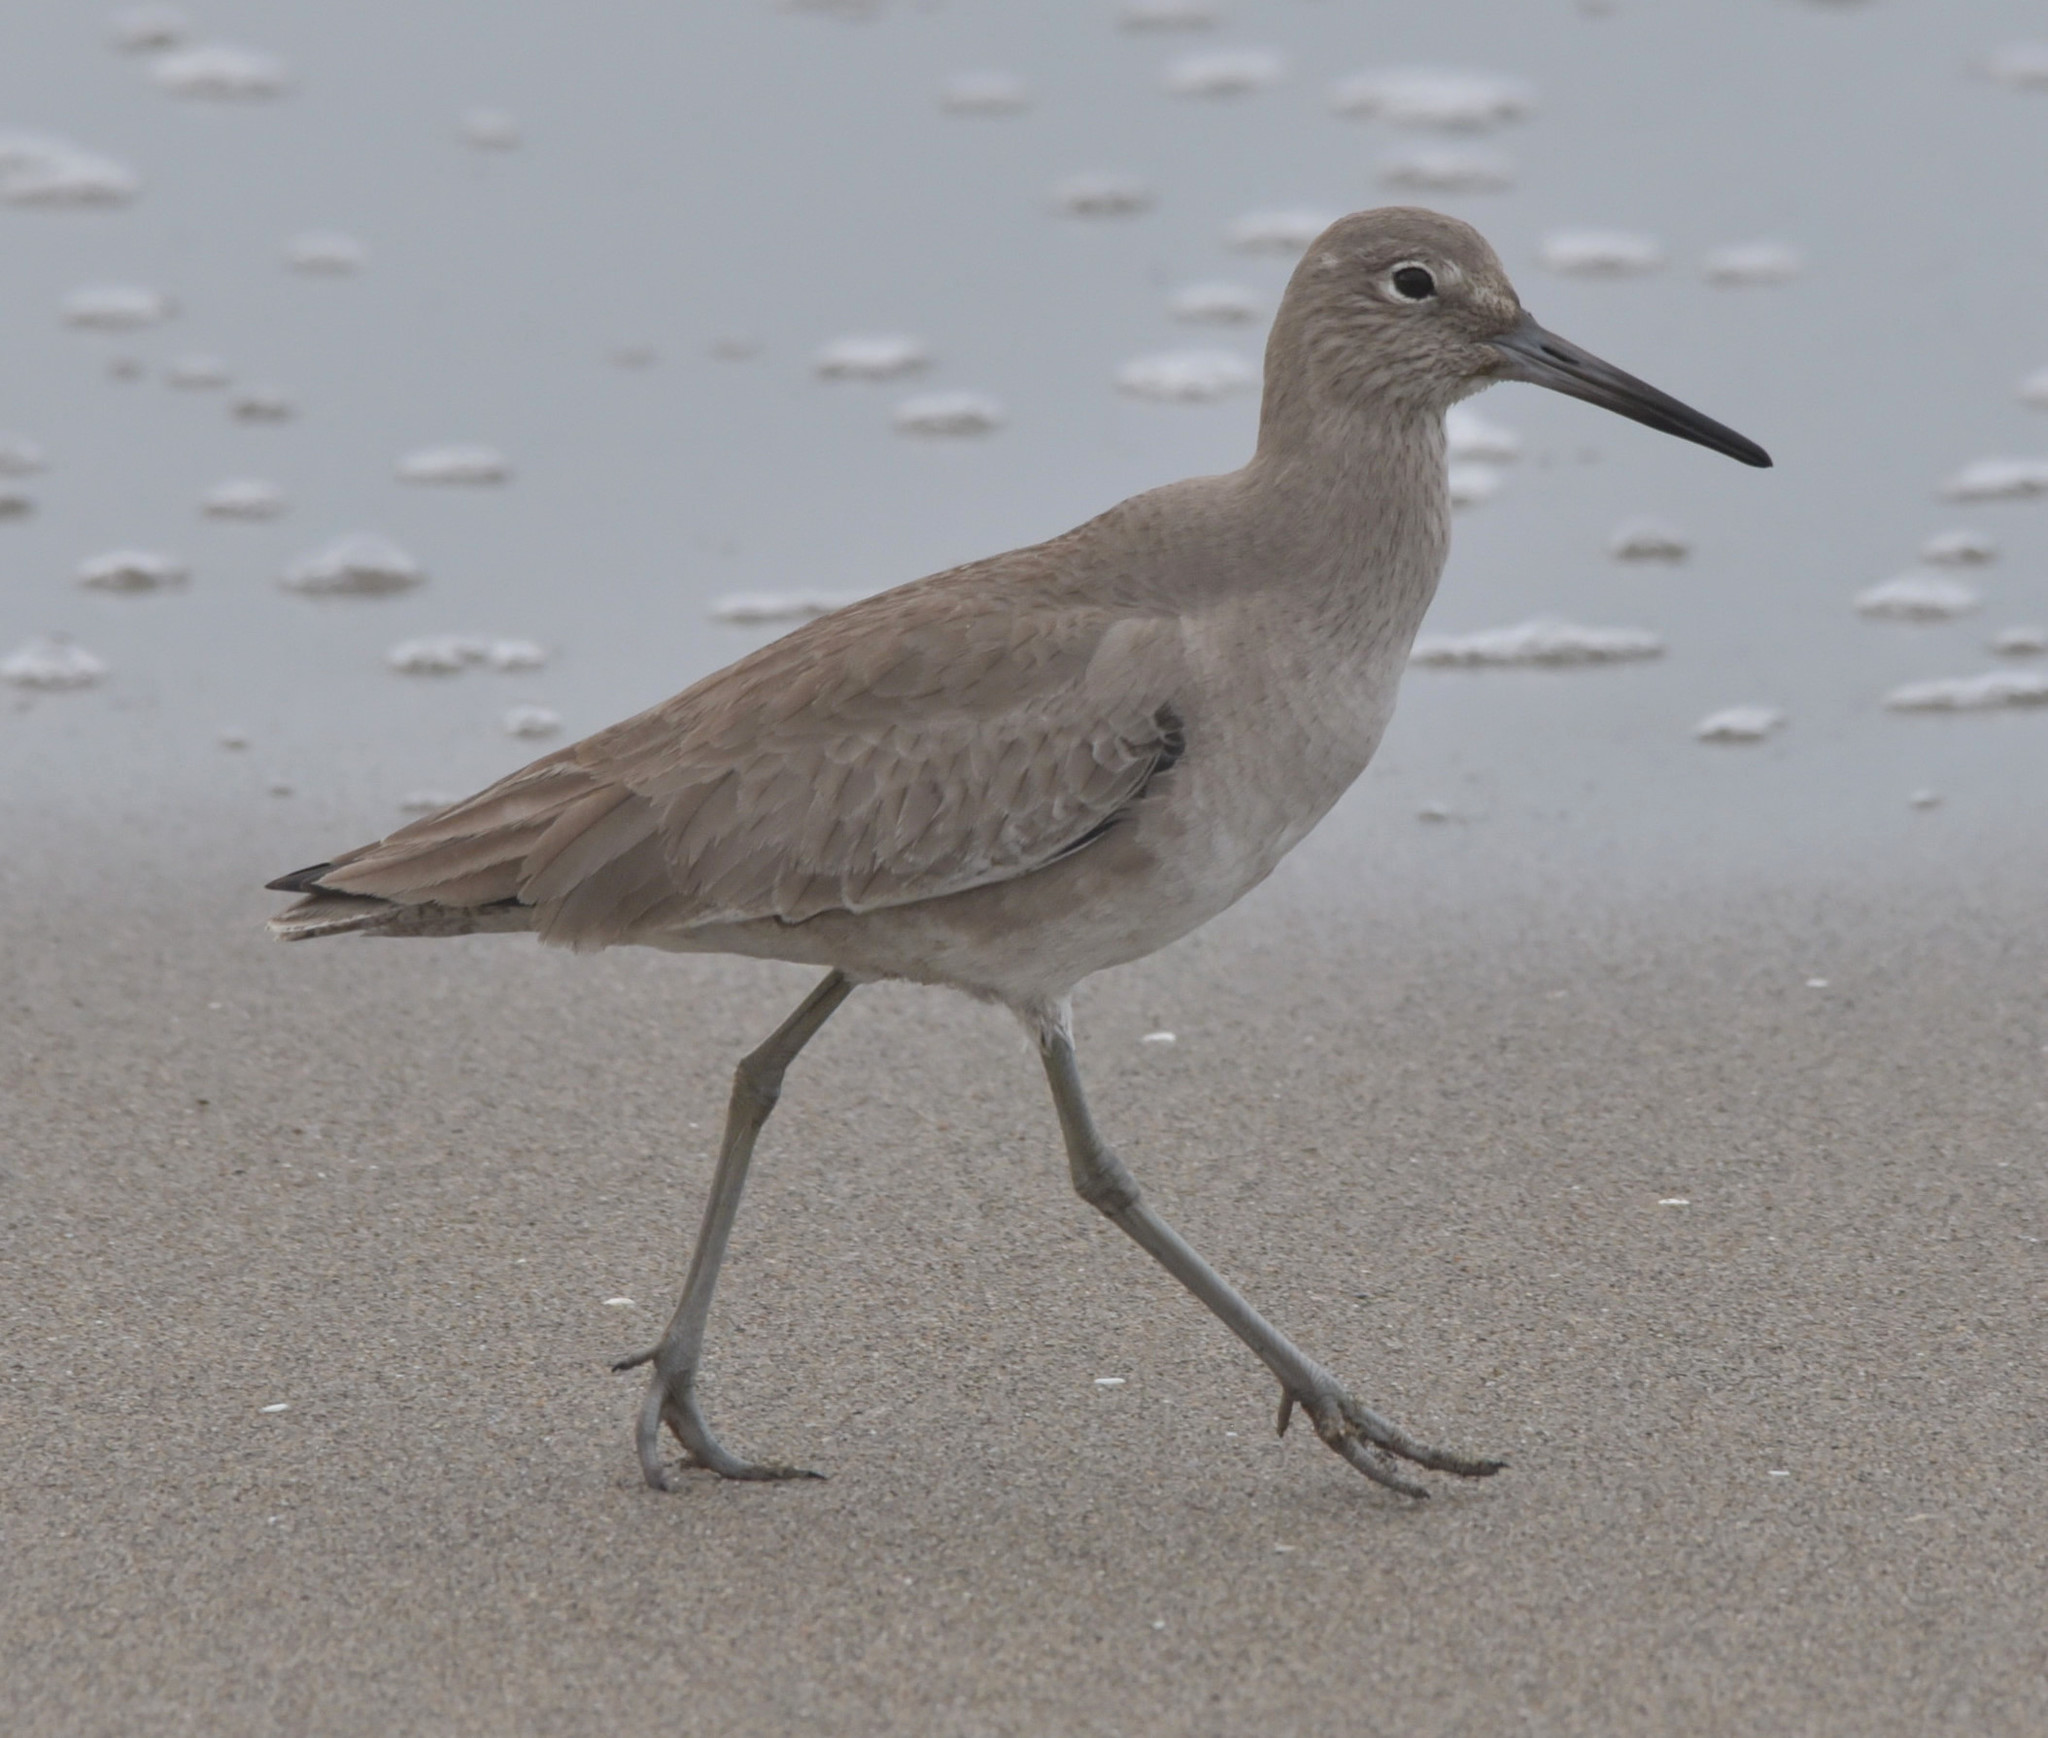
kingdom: Animalia
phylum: Chordata
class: Aves
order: Charadriiformes
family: Scolopacidae
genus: Tringa
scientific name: Tringa semipalmata
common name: Willet
